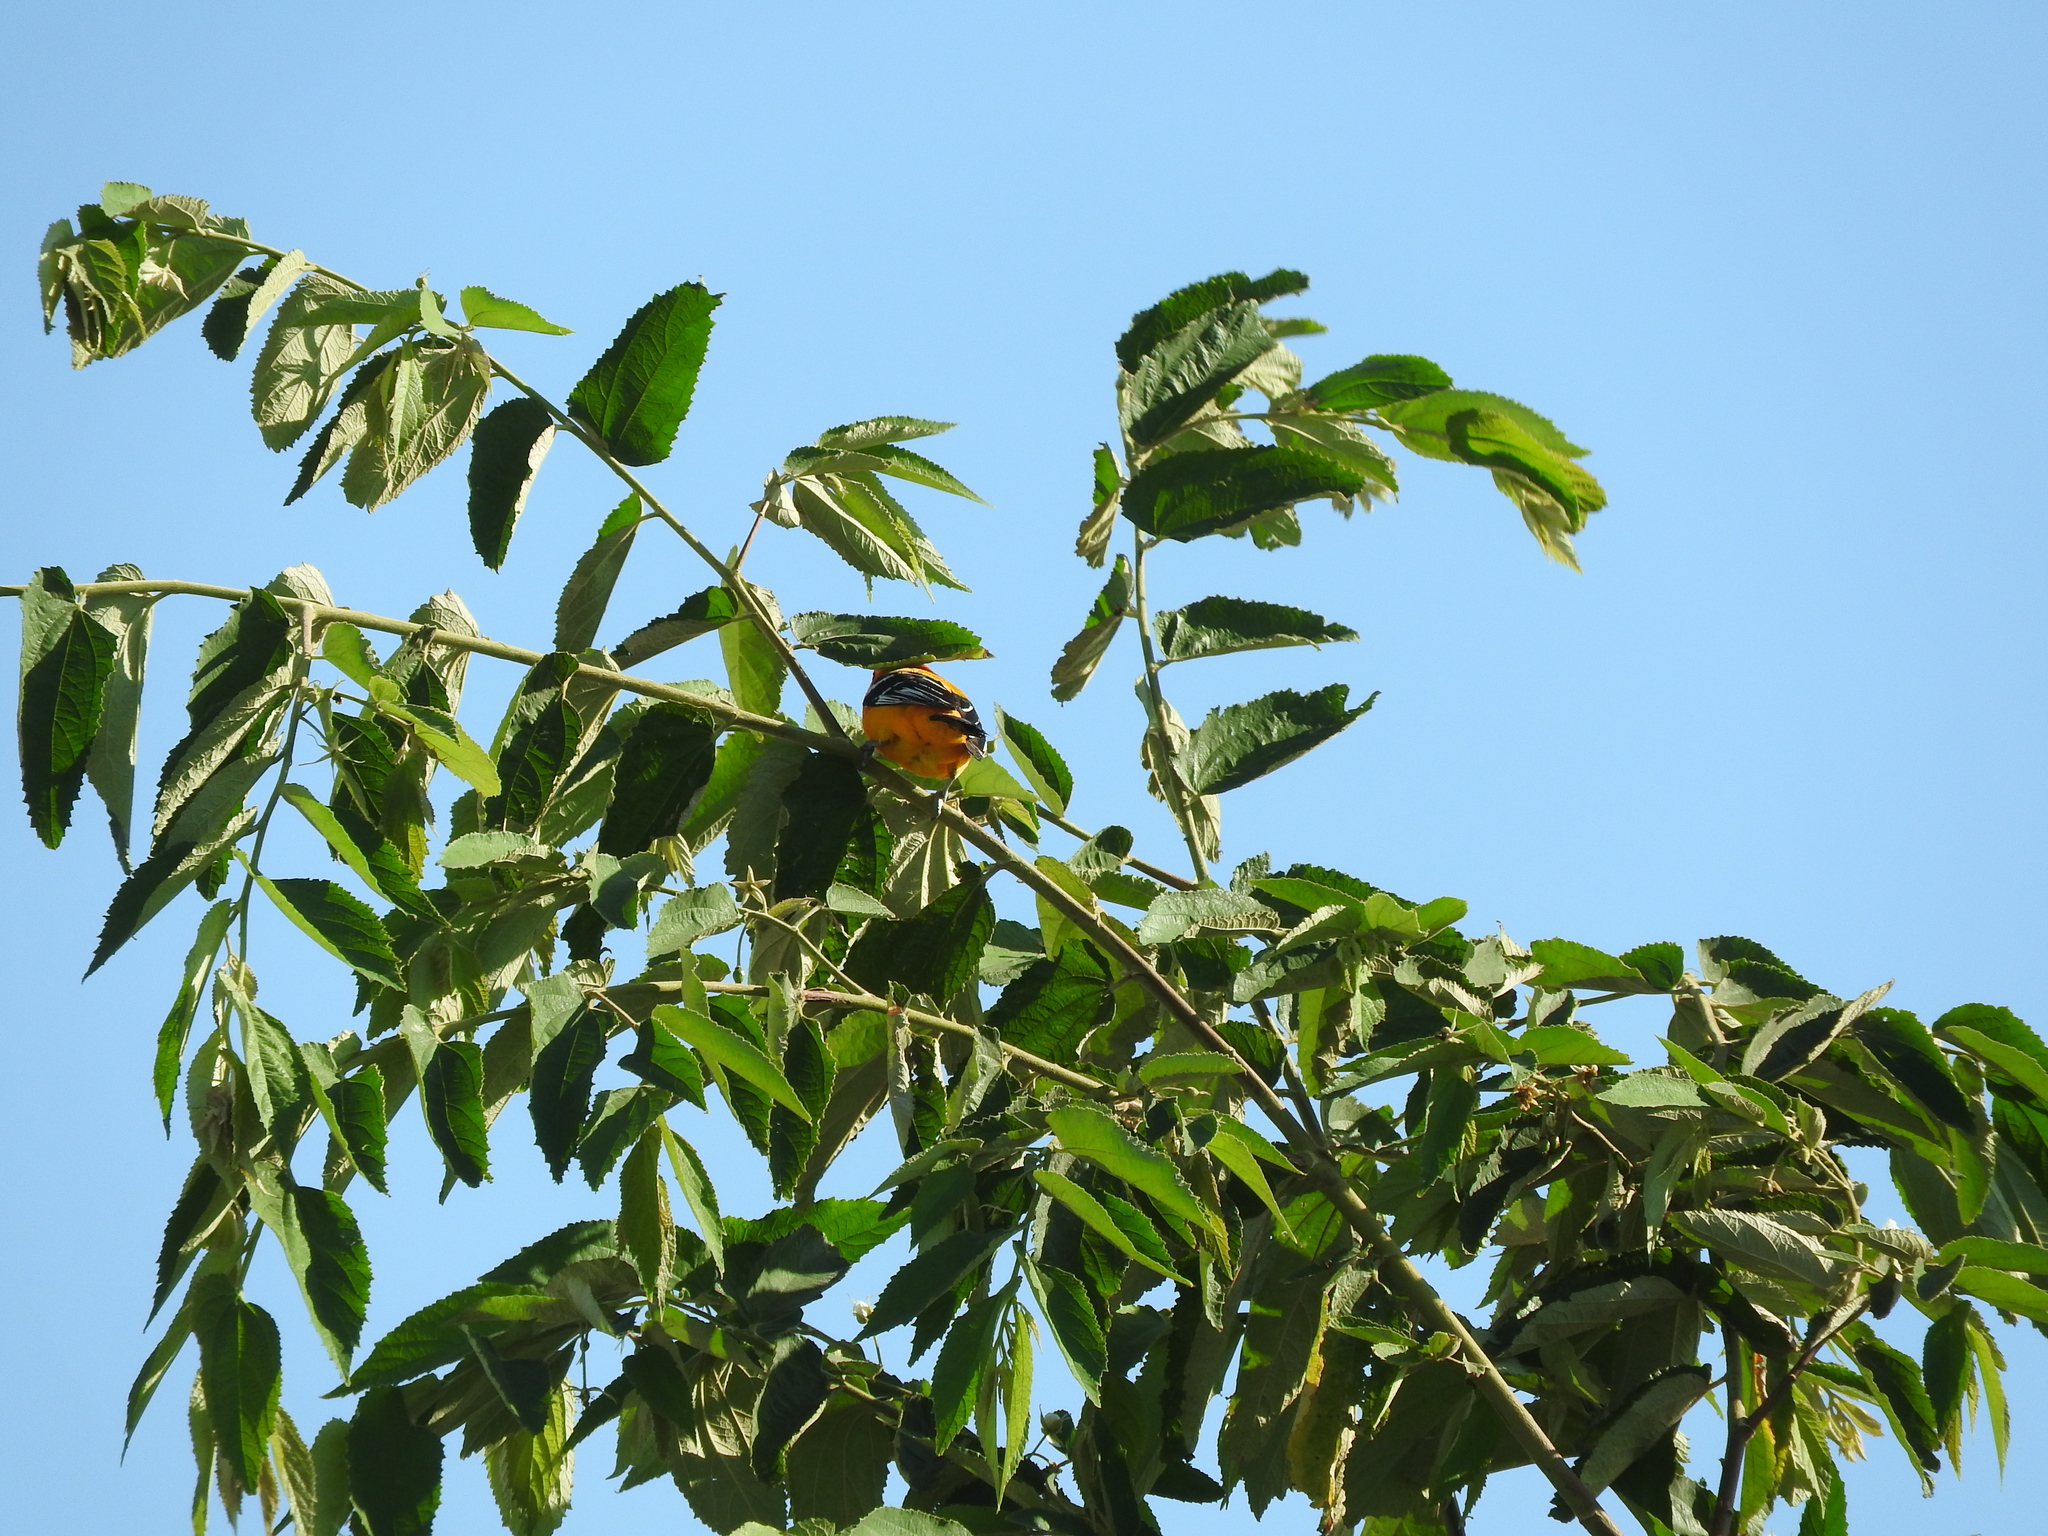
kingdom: Animalia
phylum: Chordata
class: Aves
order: Passeriformes
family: Icteridae
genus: Icterus
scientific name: Icterus auratus
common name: Orange oriole
